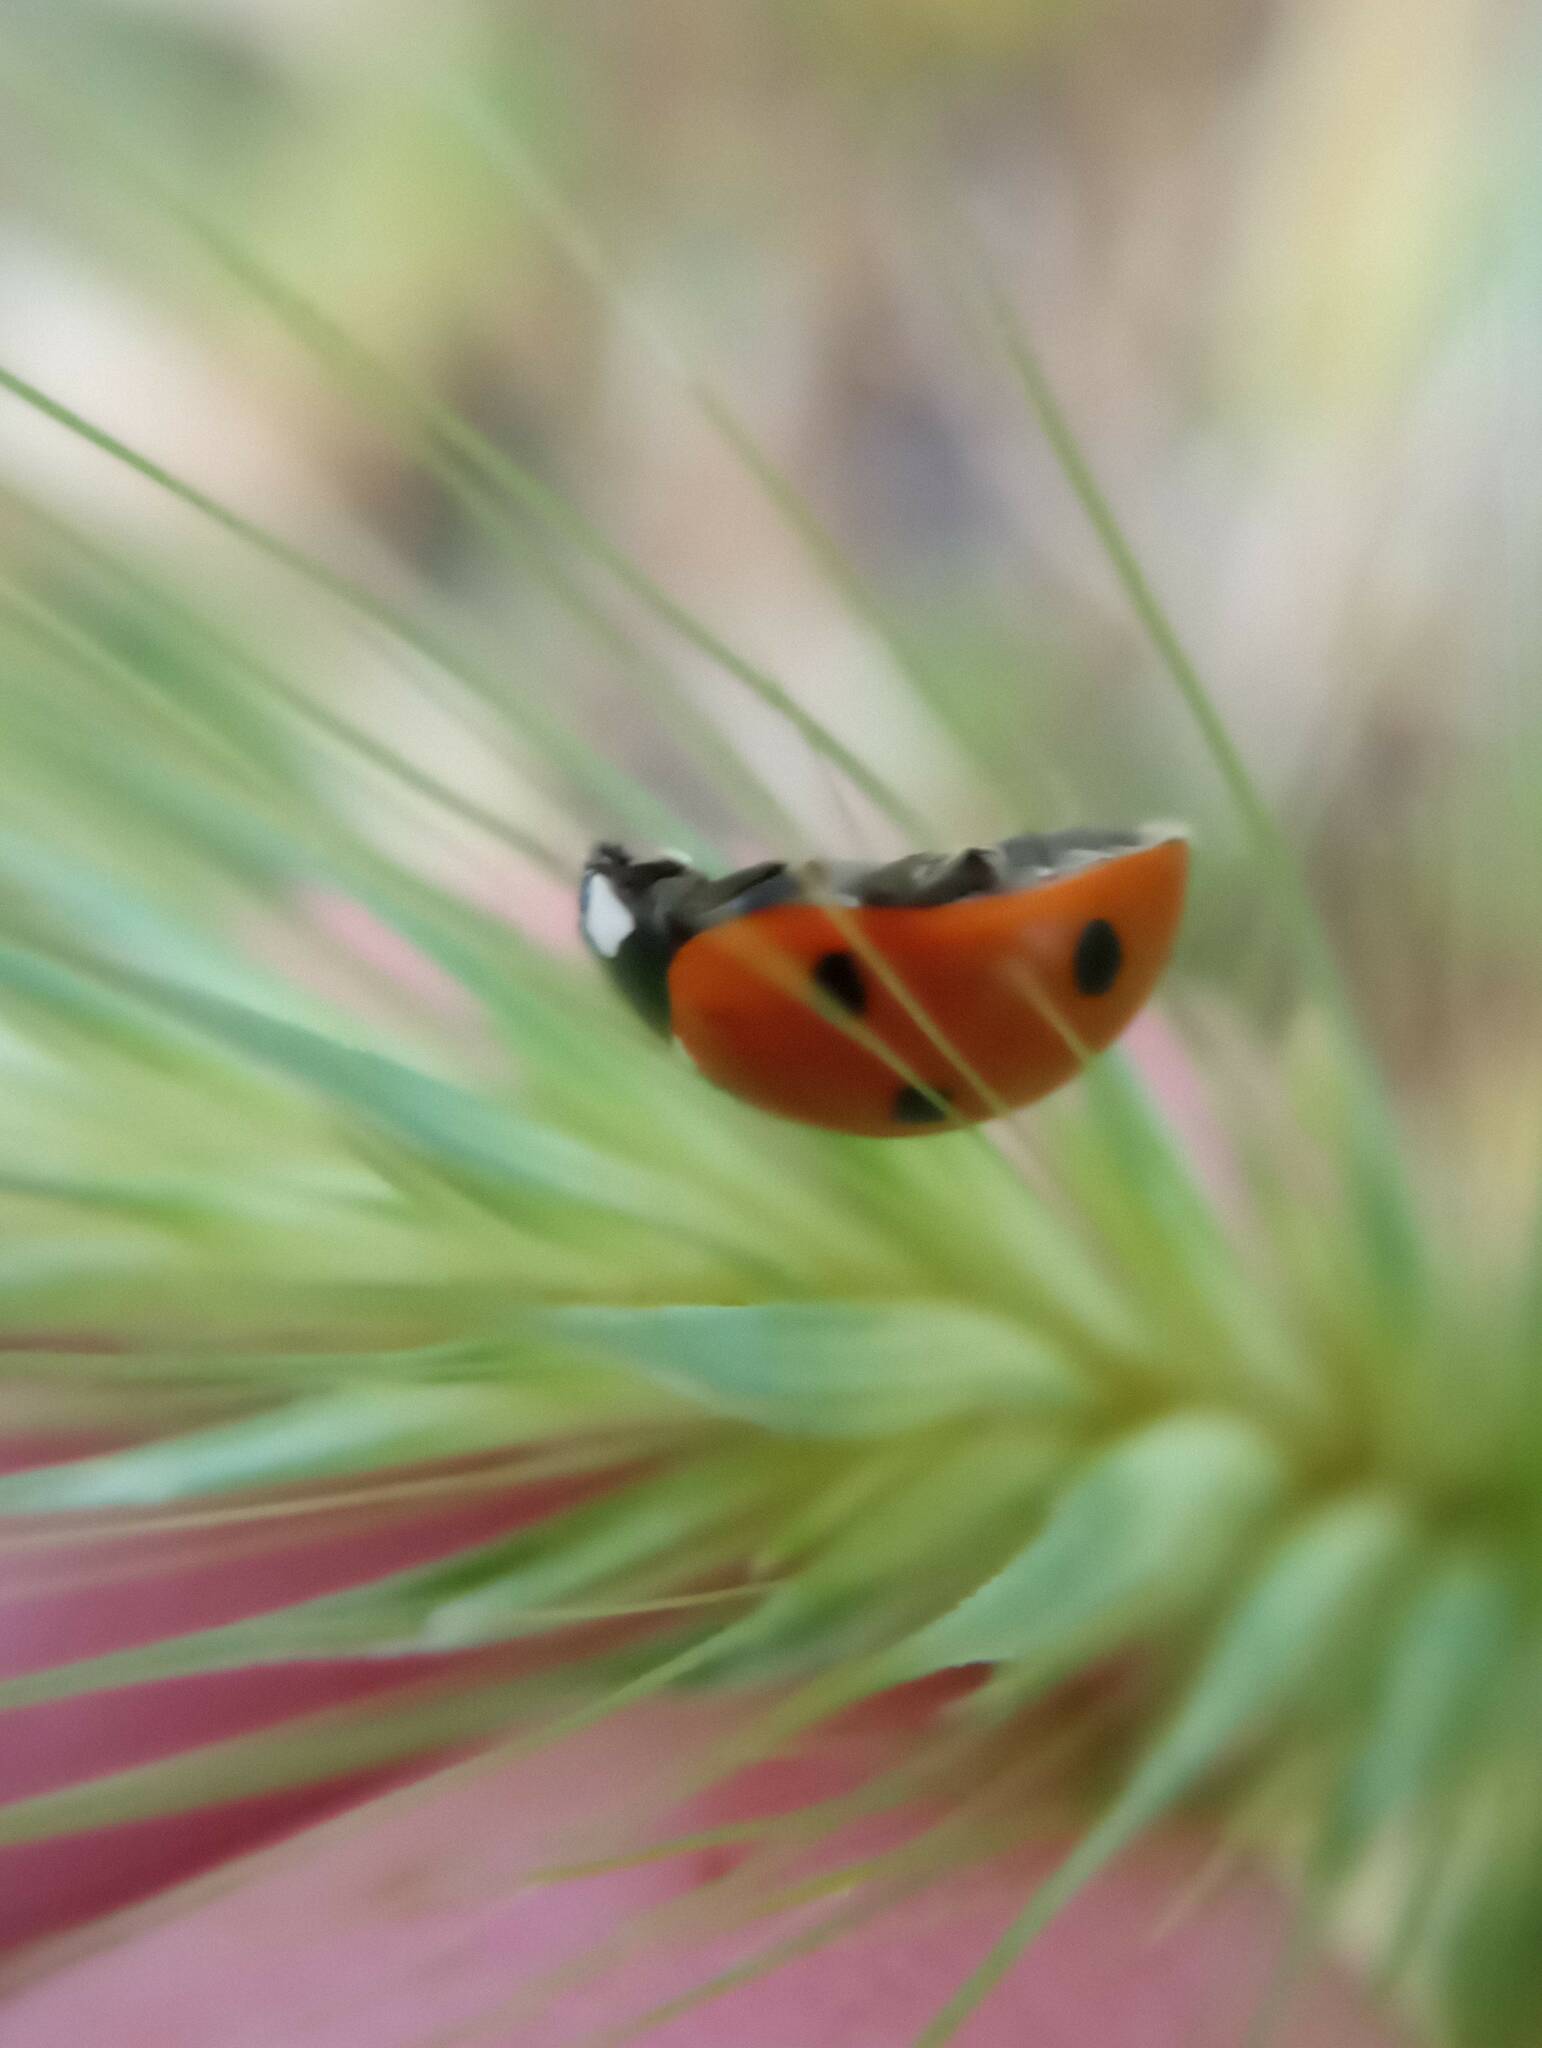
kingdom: Animalia
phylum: Arthropoda
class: Insecta
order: Coleoptera
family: Coccinellidae
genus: Coccinella
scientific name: Coccinella septempunctata
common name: Sevenspotted lady beetle
